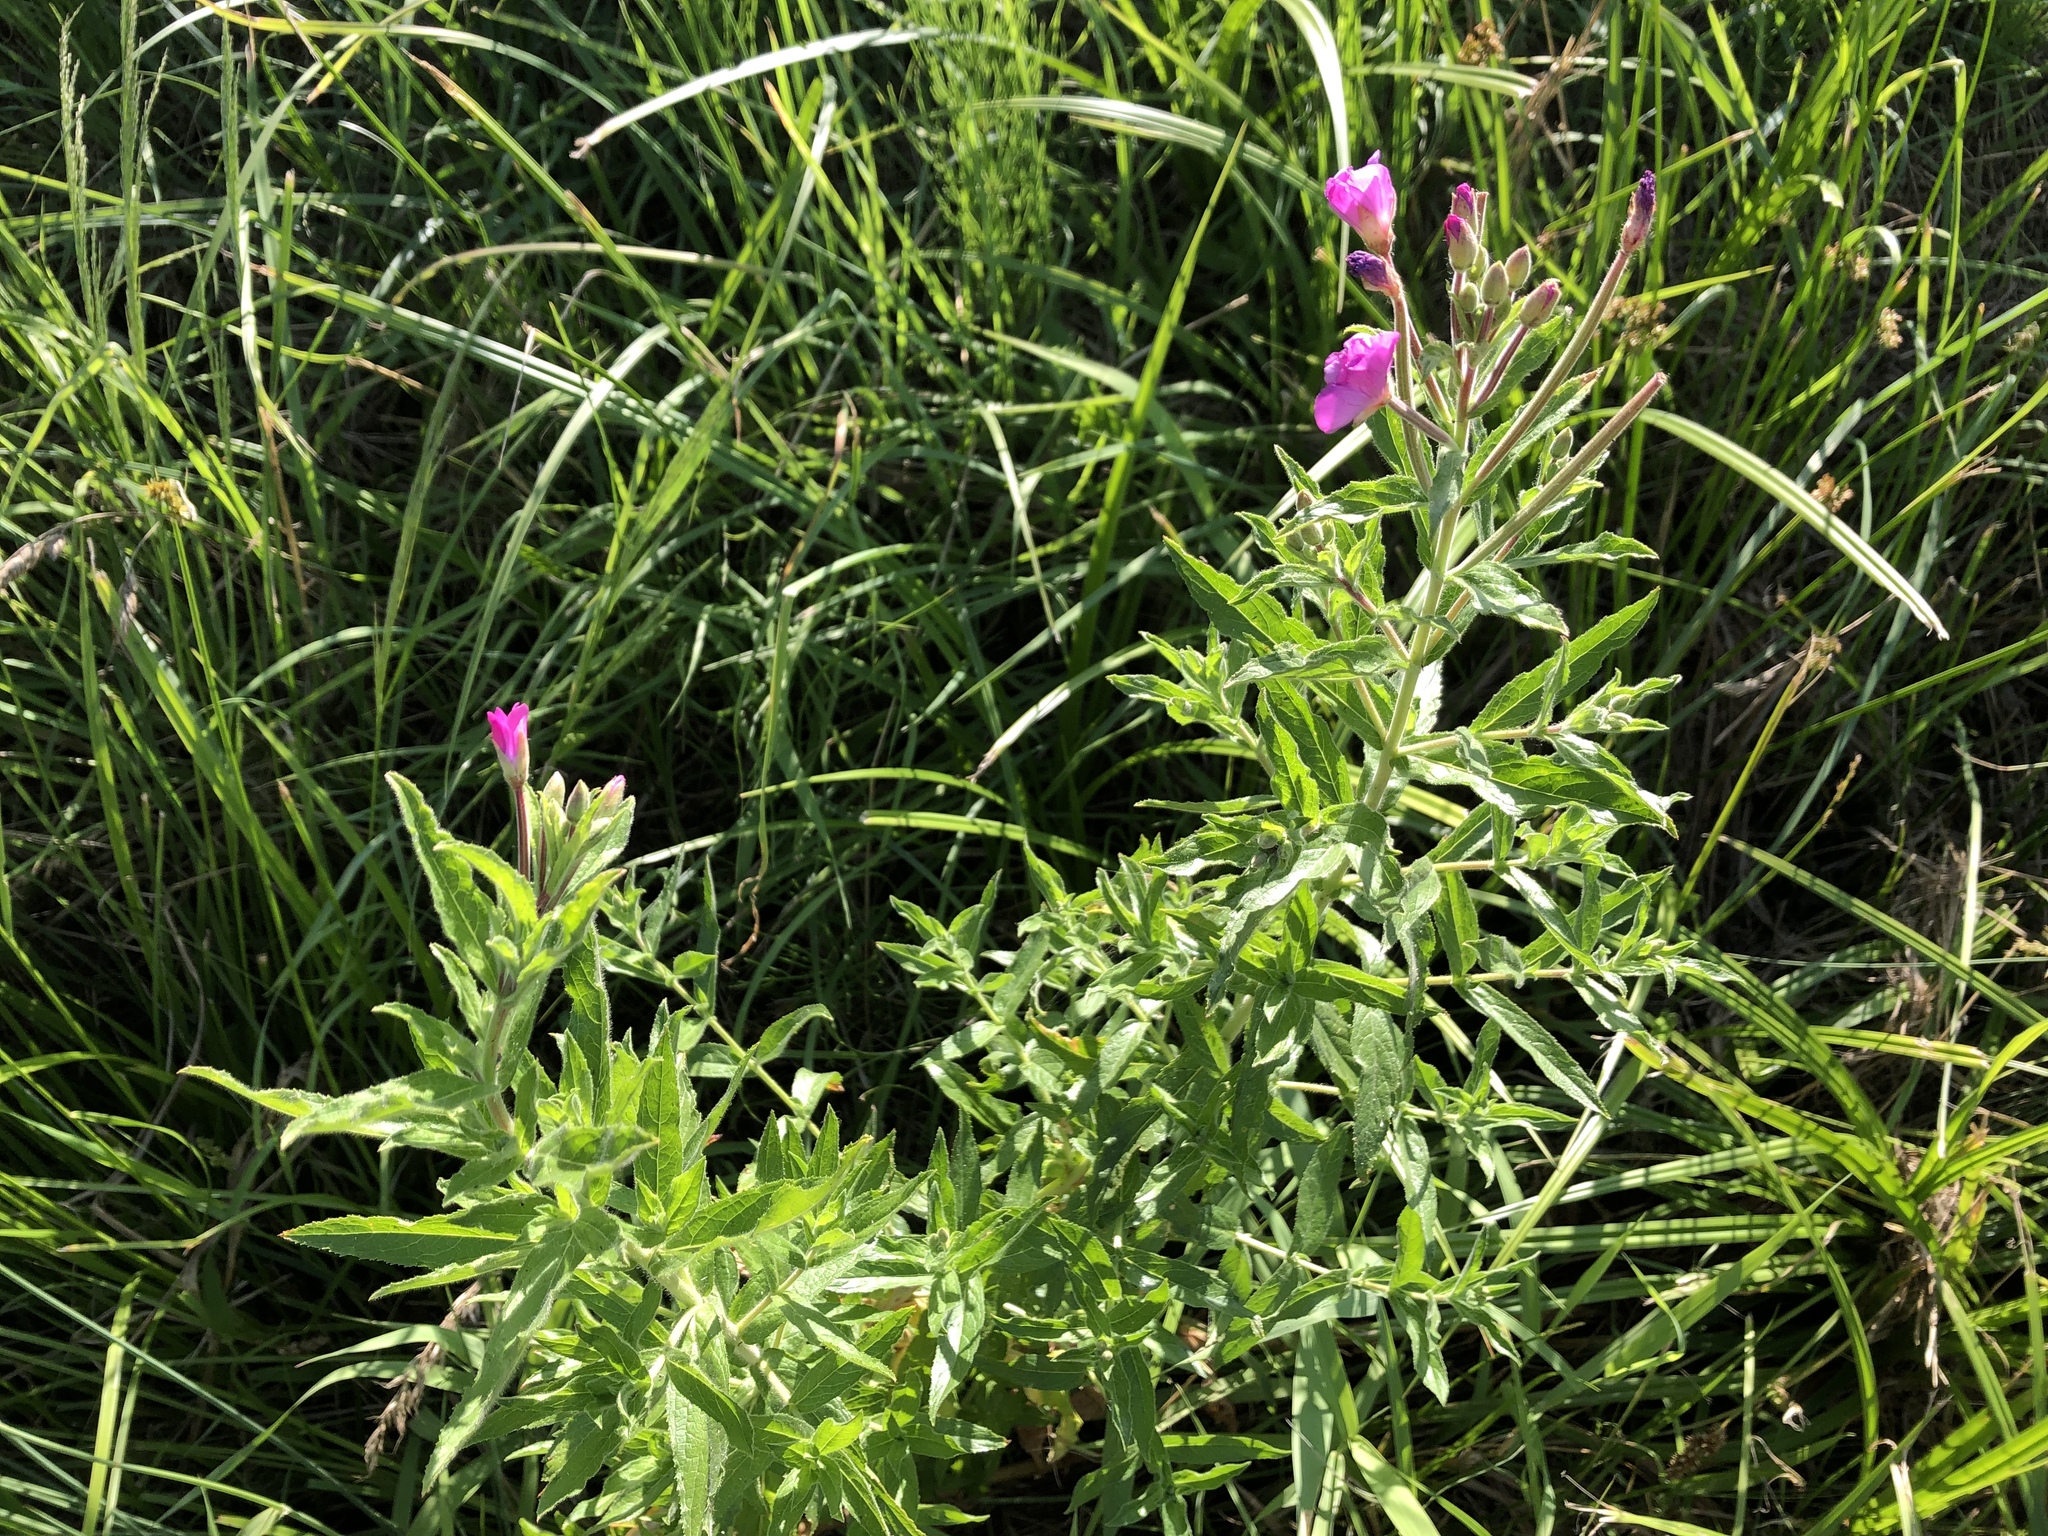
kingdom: Plantae
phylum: Tracheophyta
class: Magnoliopsida
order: Myrtales
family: Onagraceae
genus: Epilobium
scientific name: Epilobium hirsutum
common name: Great willowherb
